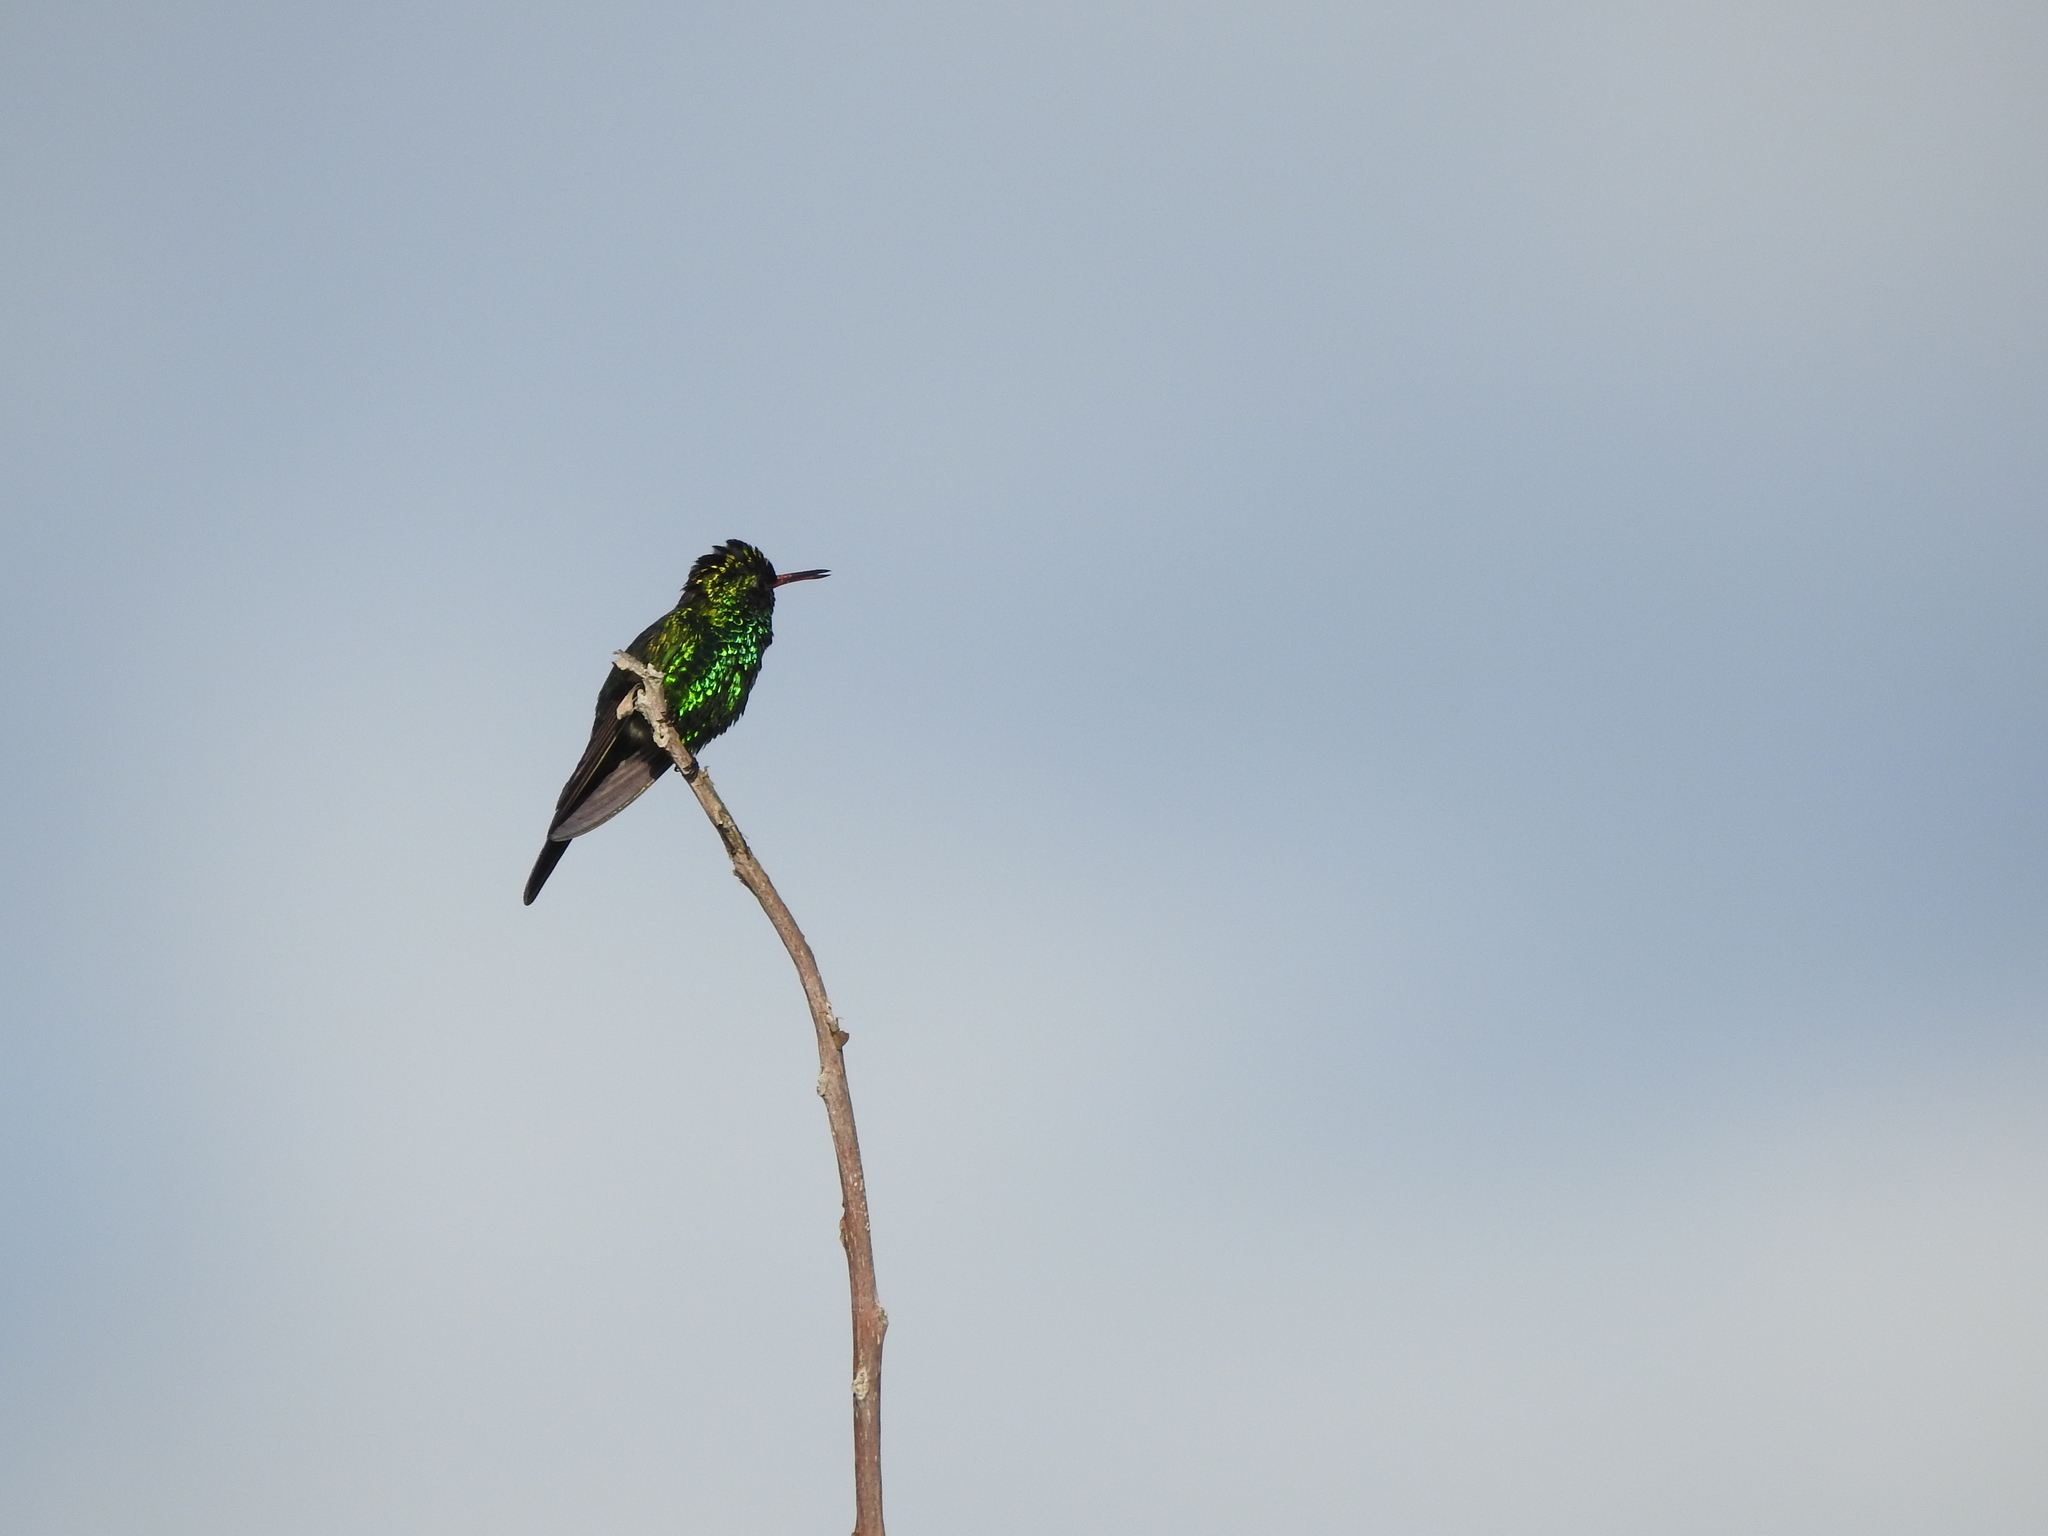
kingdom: Animalia
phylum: Chordata
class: Aves
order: Apodiformes
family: Trochilidae
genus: Cynanthus
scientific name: Cynanthus forficatus
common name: Cozumel emerald
